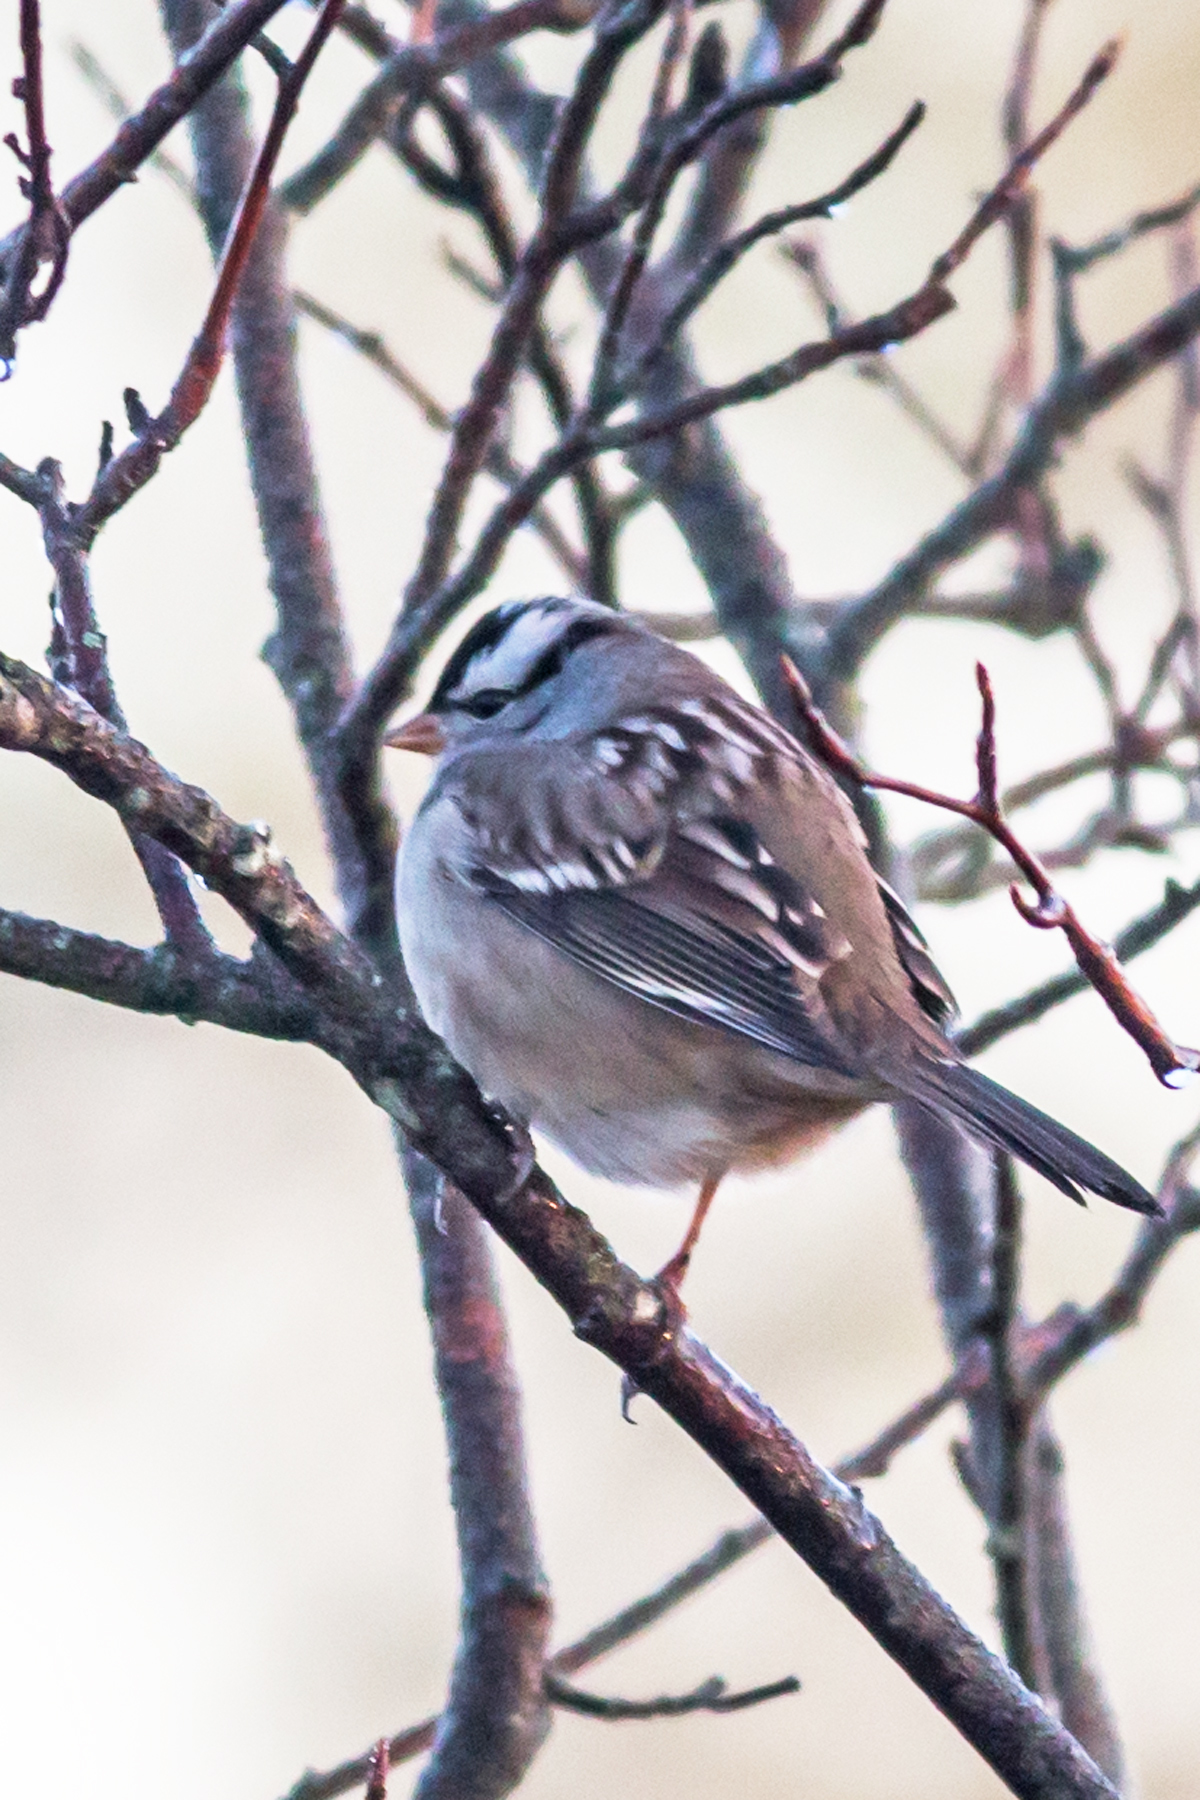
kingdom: Animalia
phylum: Chordata
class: Aves
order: Passeriformes
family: Passerellidae
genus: Zonotrichia
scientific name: Zonotrichia leucophrys
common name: White-crowned sparrow
